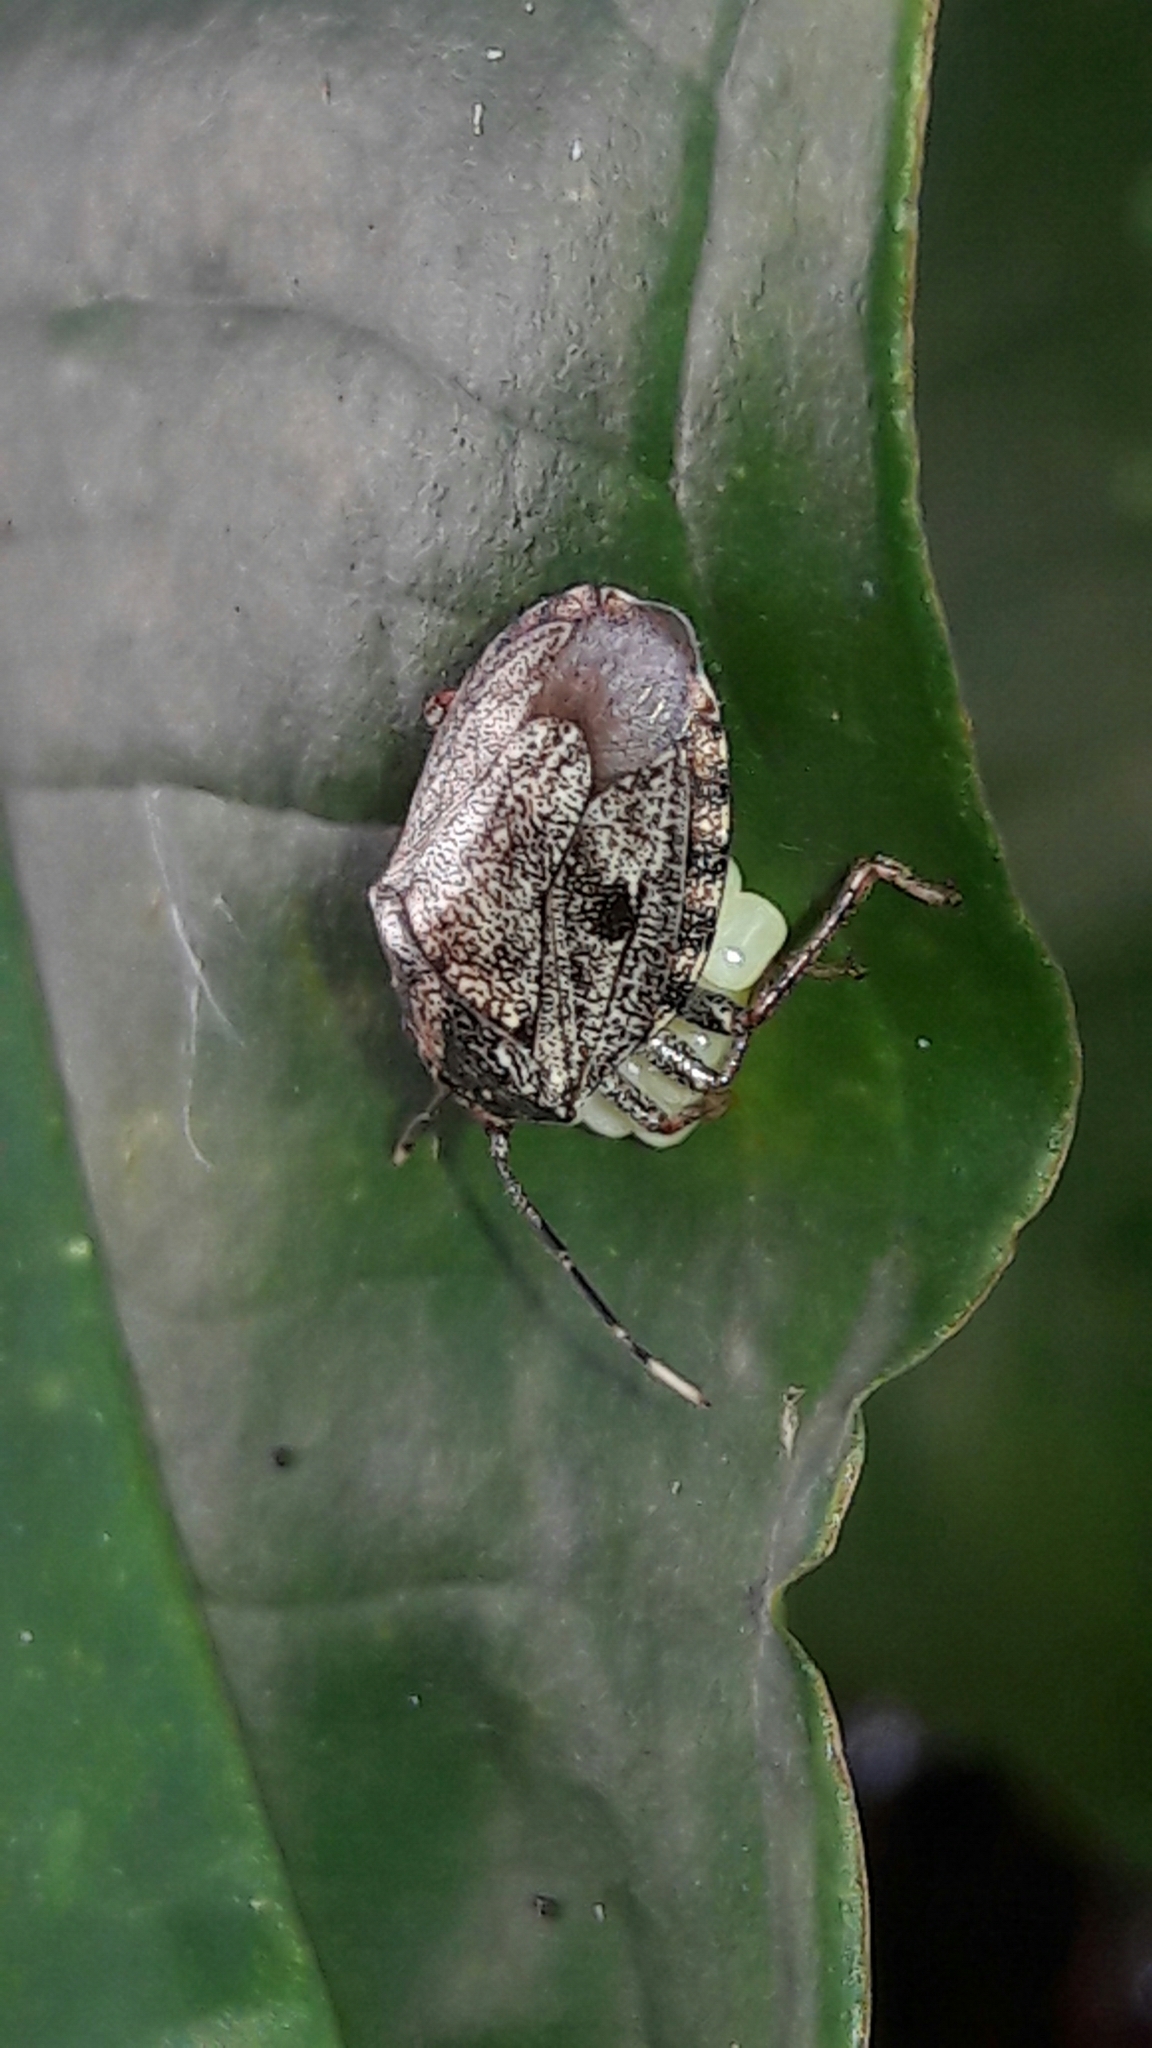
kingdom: Animalia
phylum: Arthropoda
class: Insecta
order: Hemiptera
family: Pentatomidae
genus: Antiteuchus
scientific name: Antiteuchus tripterus
